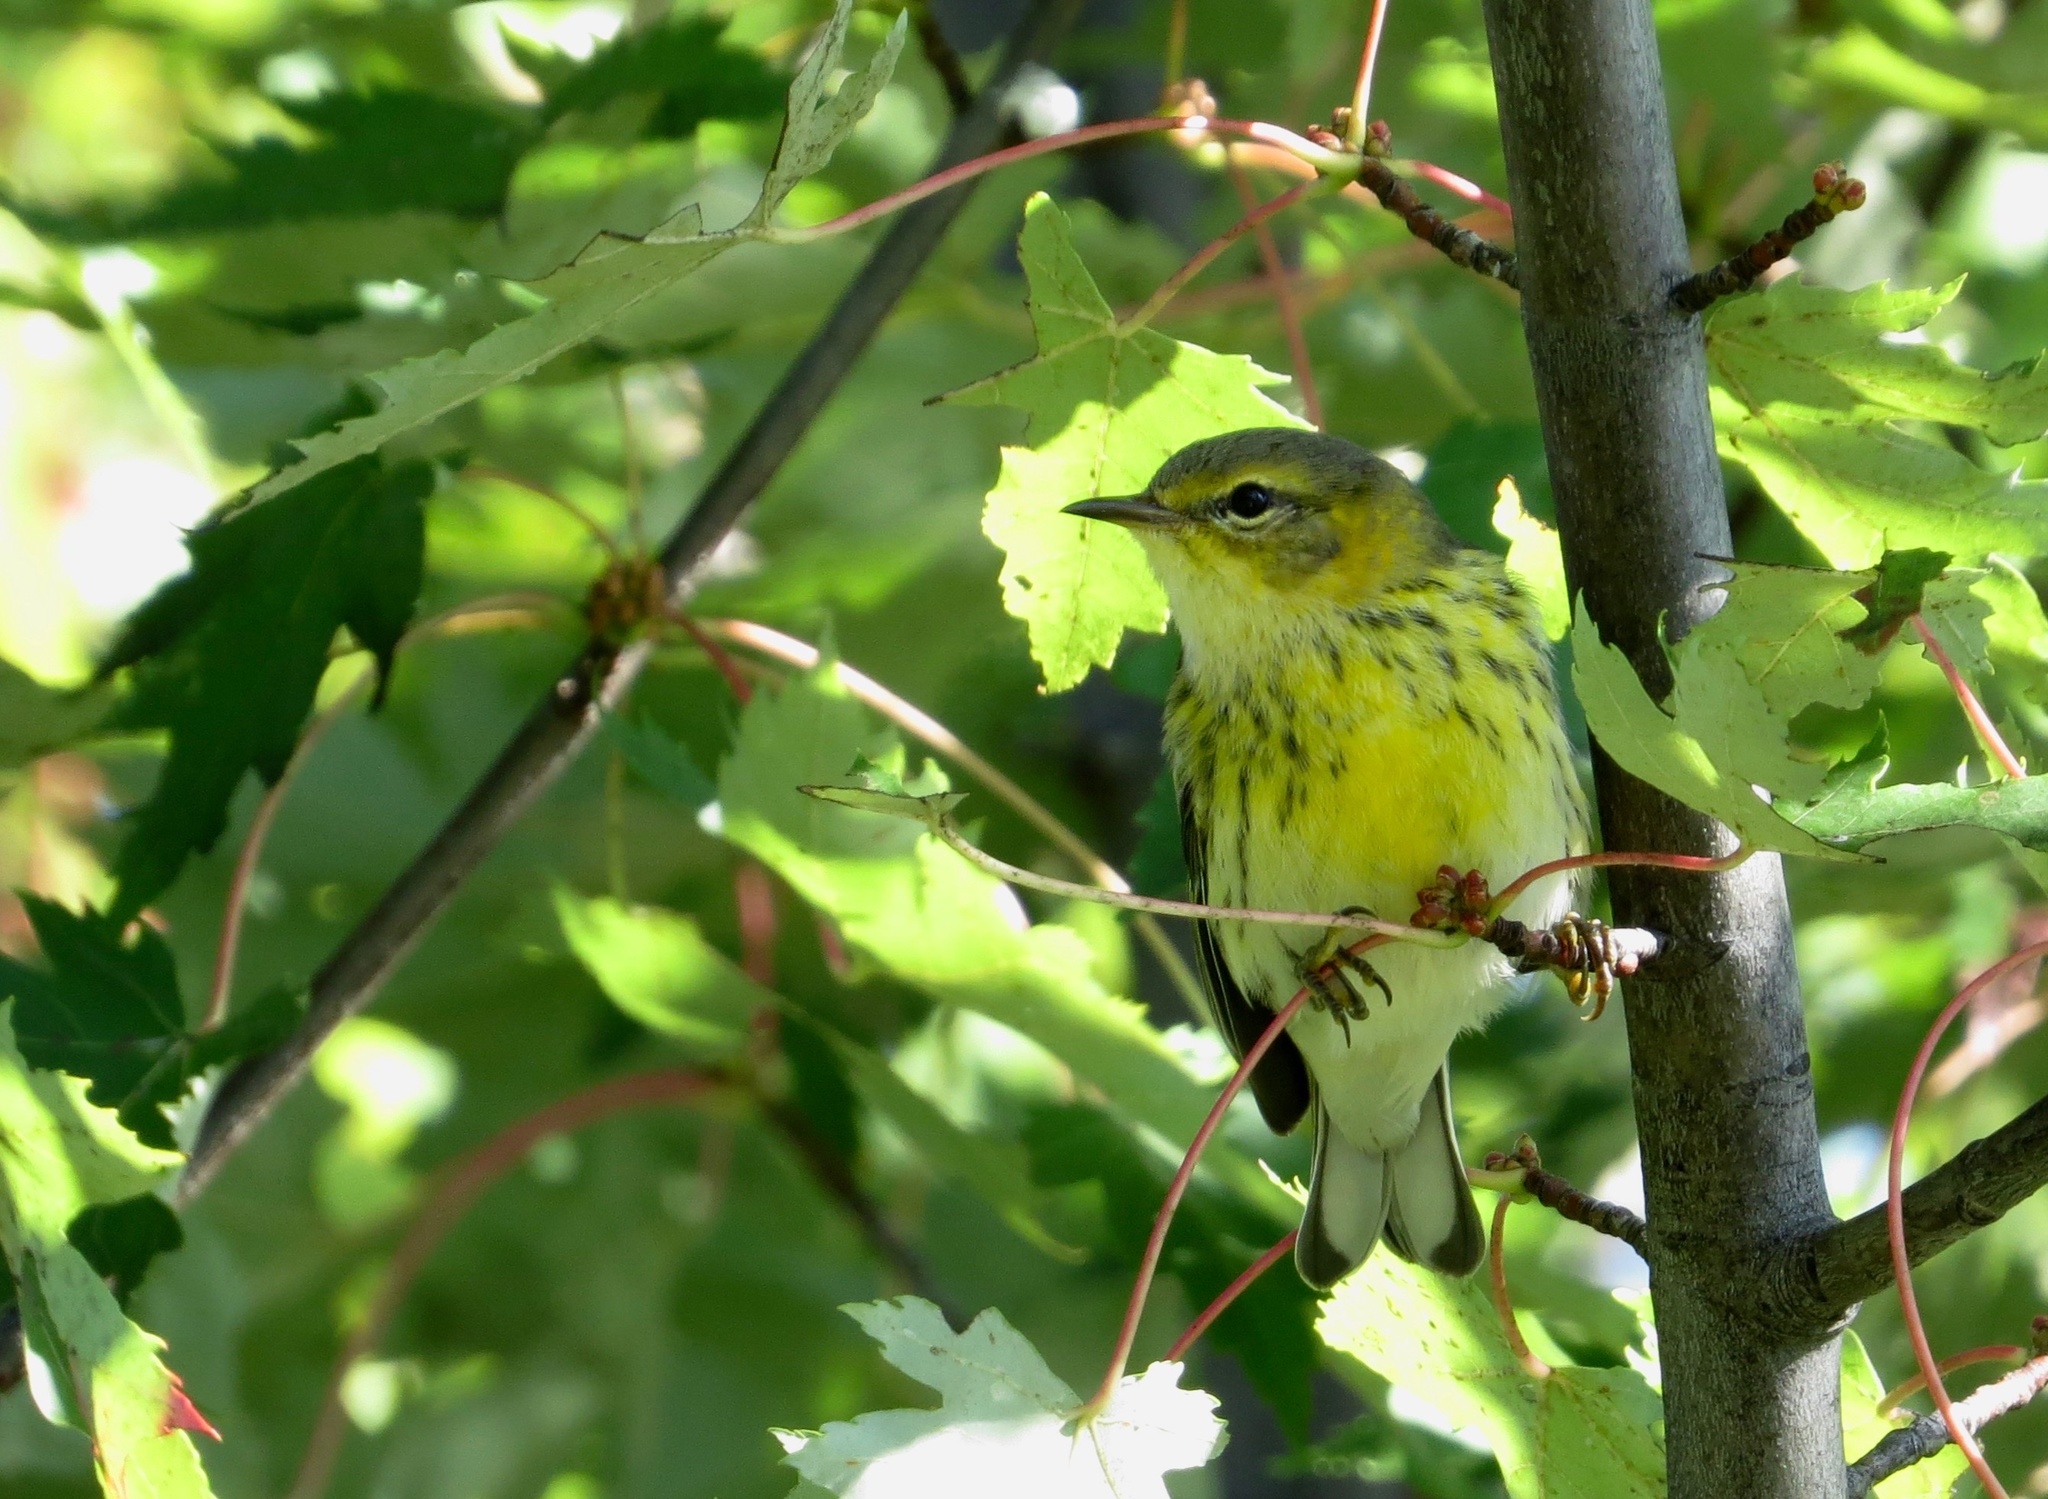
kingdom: Animalia
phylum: Chordata
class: Aves
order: Passeriformes
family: Parulidae
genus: Setophaga
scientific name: Setophaga tigrina
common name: Cape may warbler
